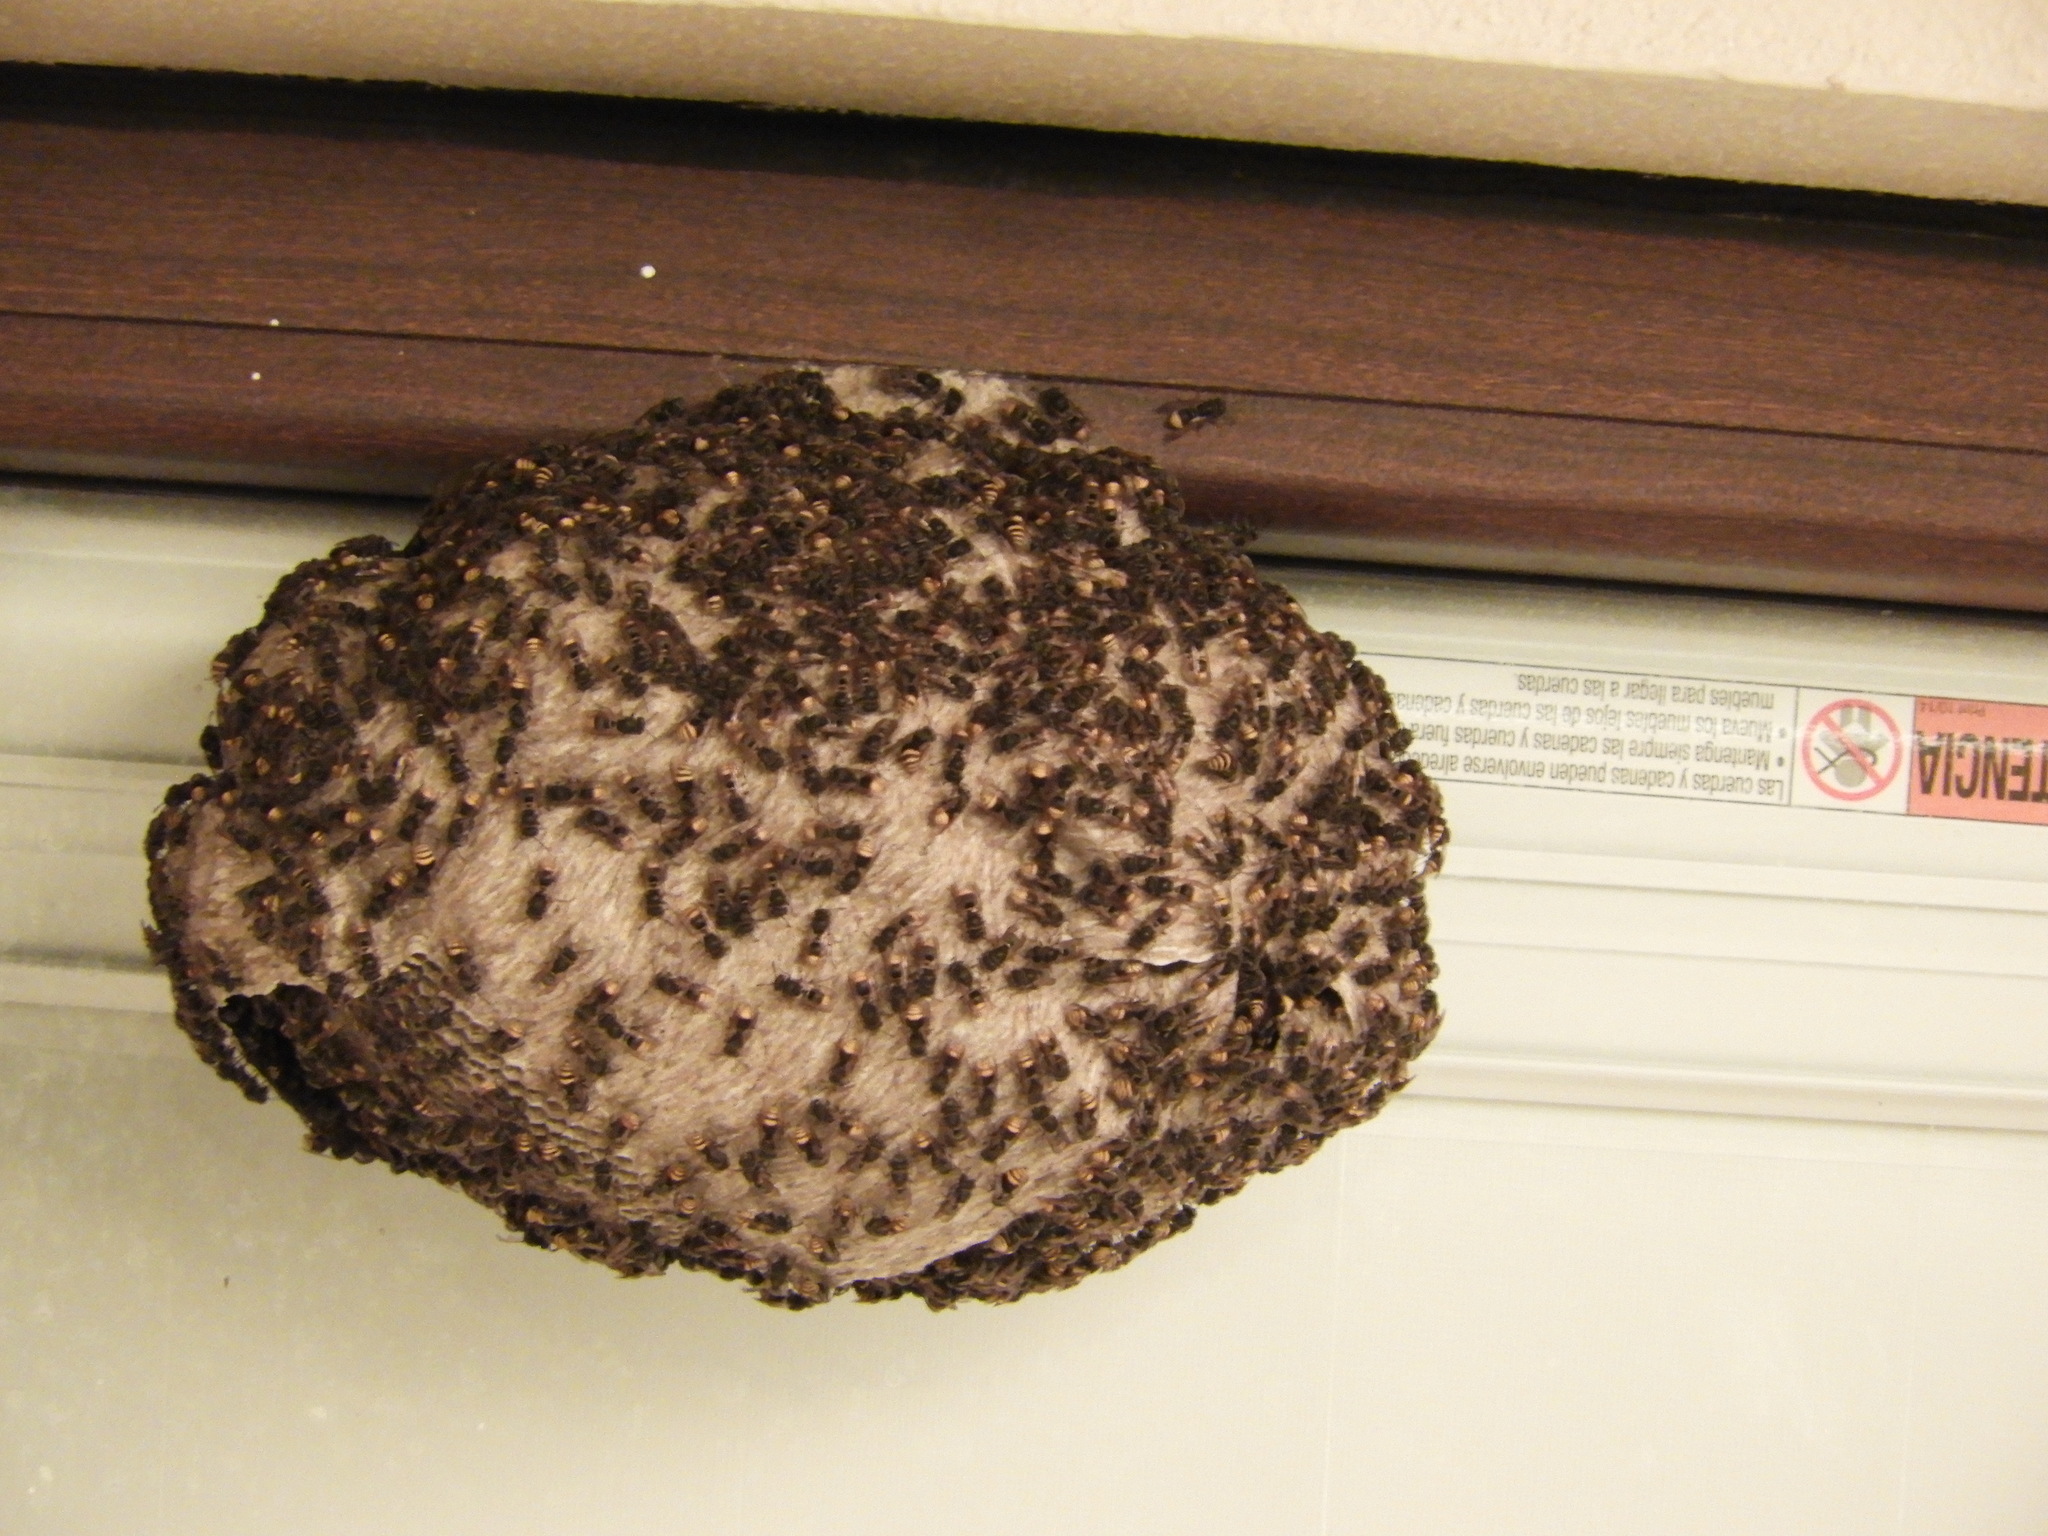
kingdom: Animalia
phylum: Arthropoda
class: Insecta
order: Hymenoptera
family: Vespidae
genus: Brachygastra
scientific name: Brachygastra azteca
